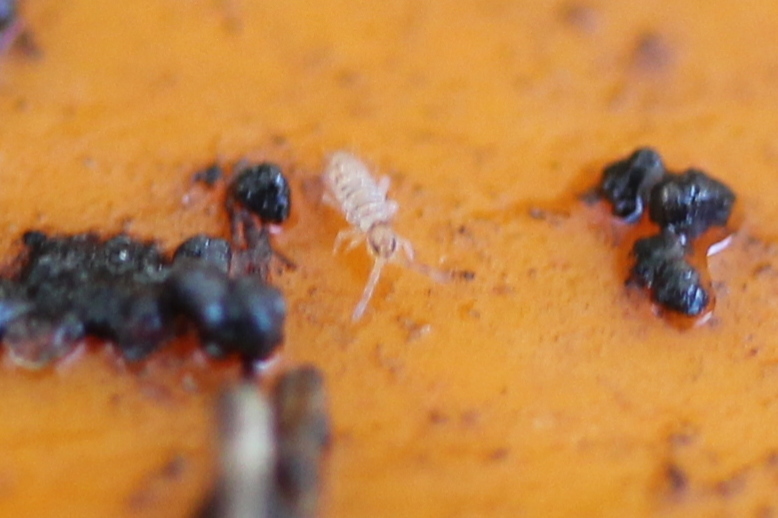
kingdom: Animalia
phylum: Arthropoda
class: Collembola
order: Entomobryomorpha
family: Entomobryidae
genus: Entomobrya
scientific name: Entomobrya atrocincta
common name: Springtail
